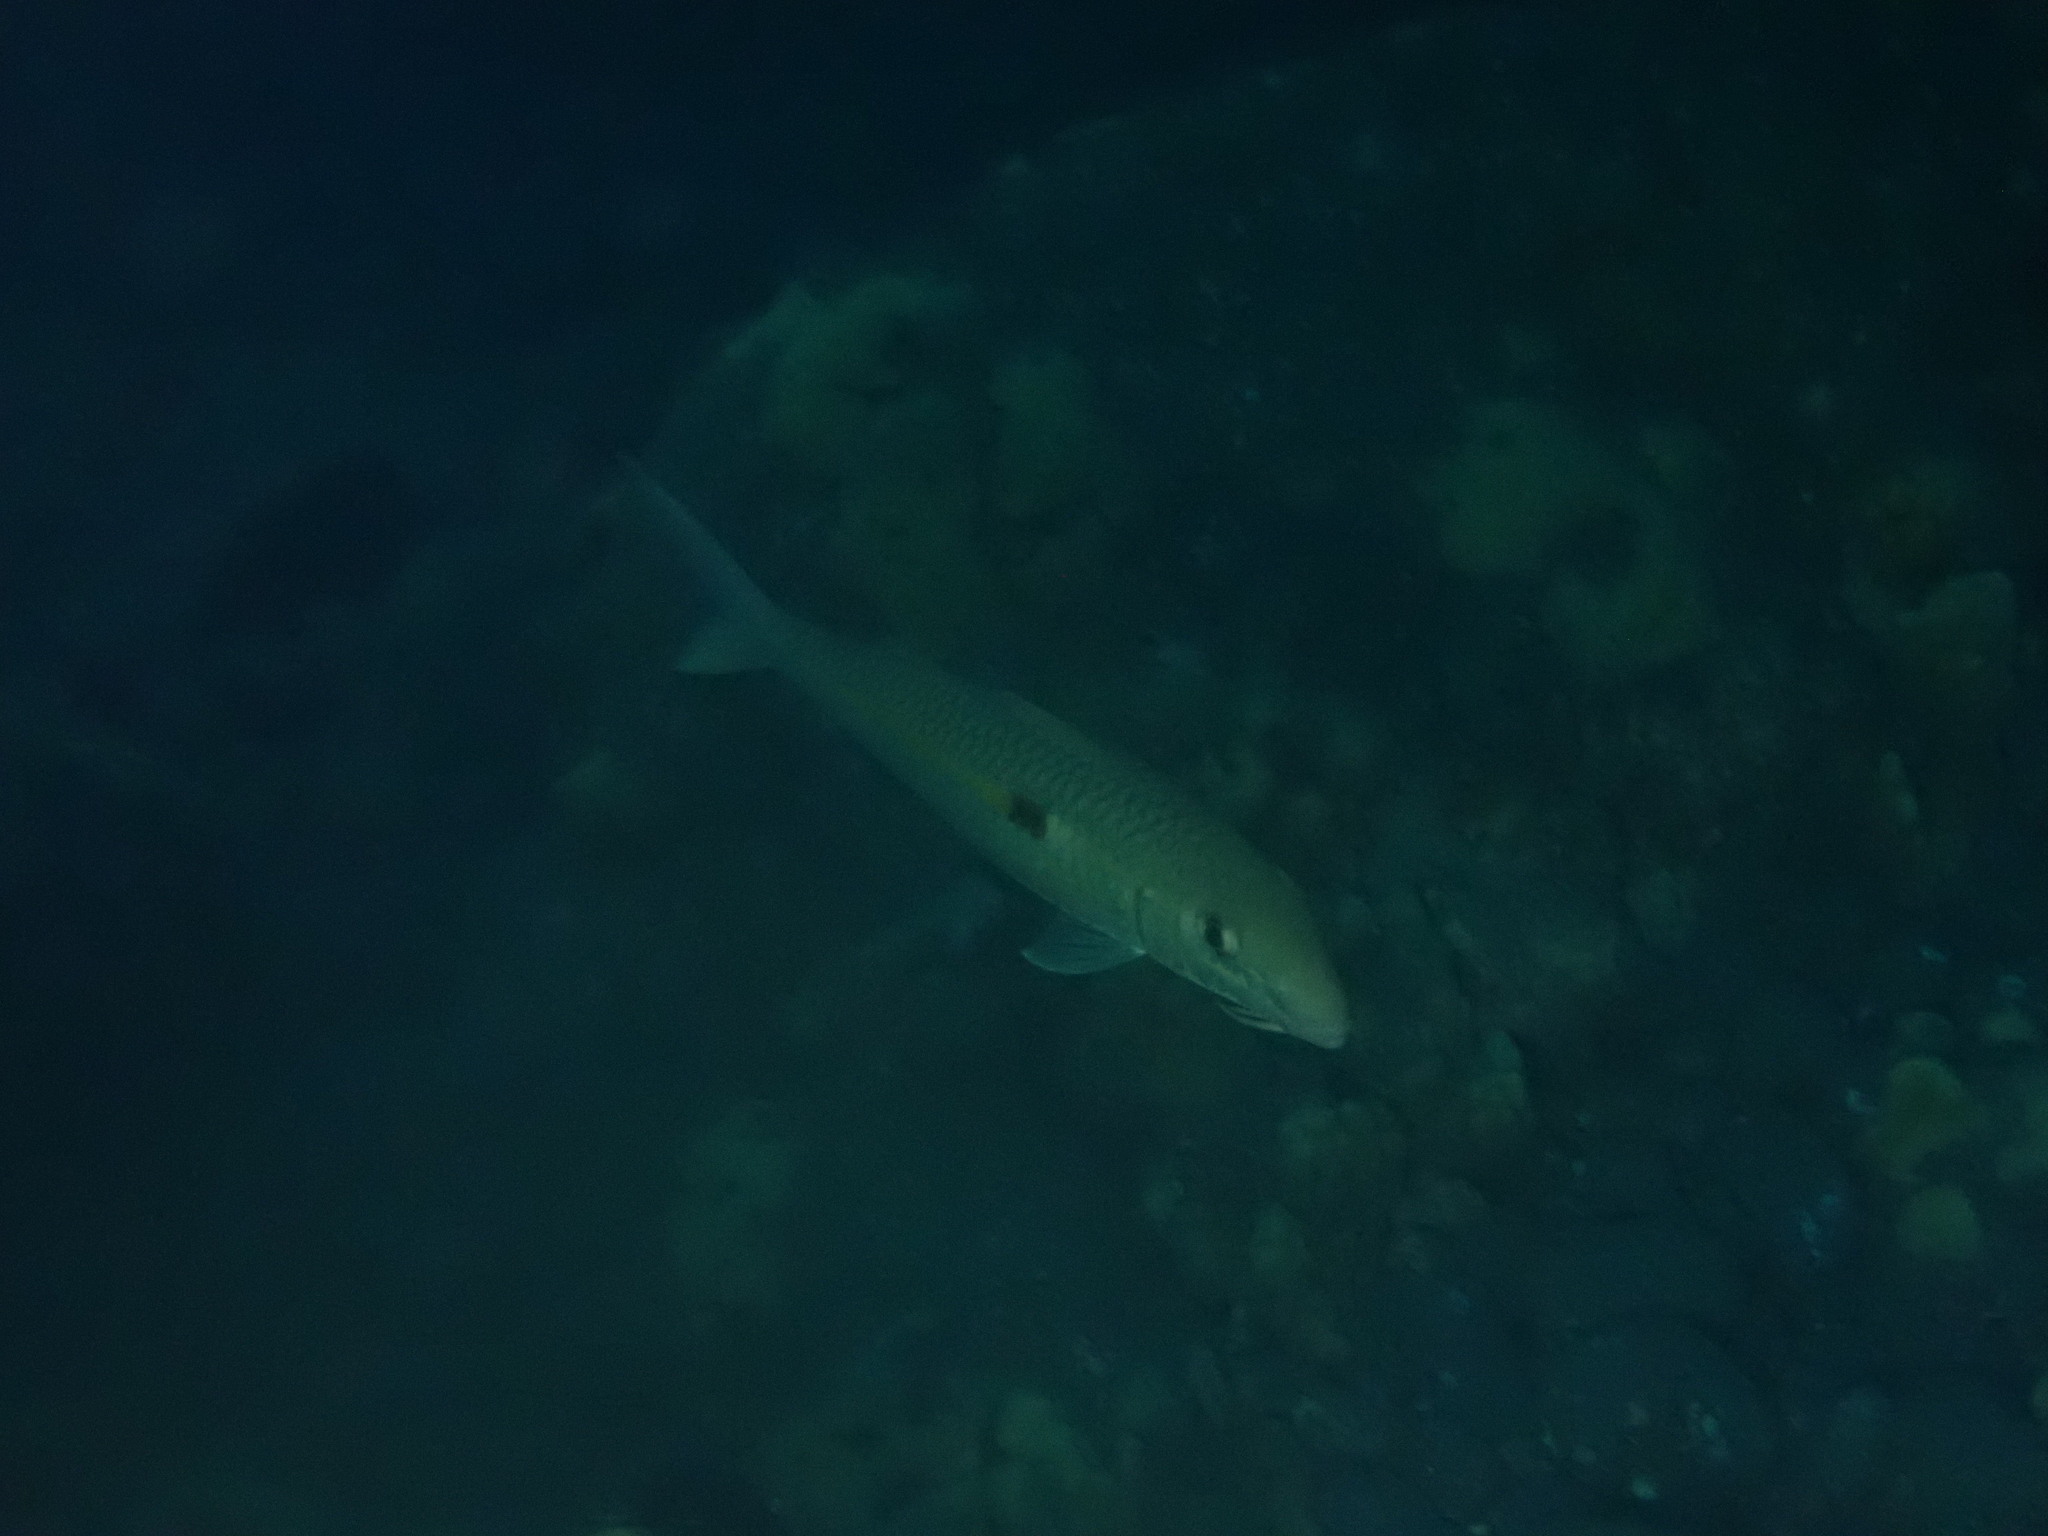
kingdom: Animalia
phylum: Chordata
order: Perciformes
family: Mullidae
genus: Mulloidichthys
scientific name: Mulloidichthys flavolineatus
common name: Yellowstripe goatfish
